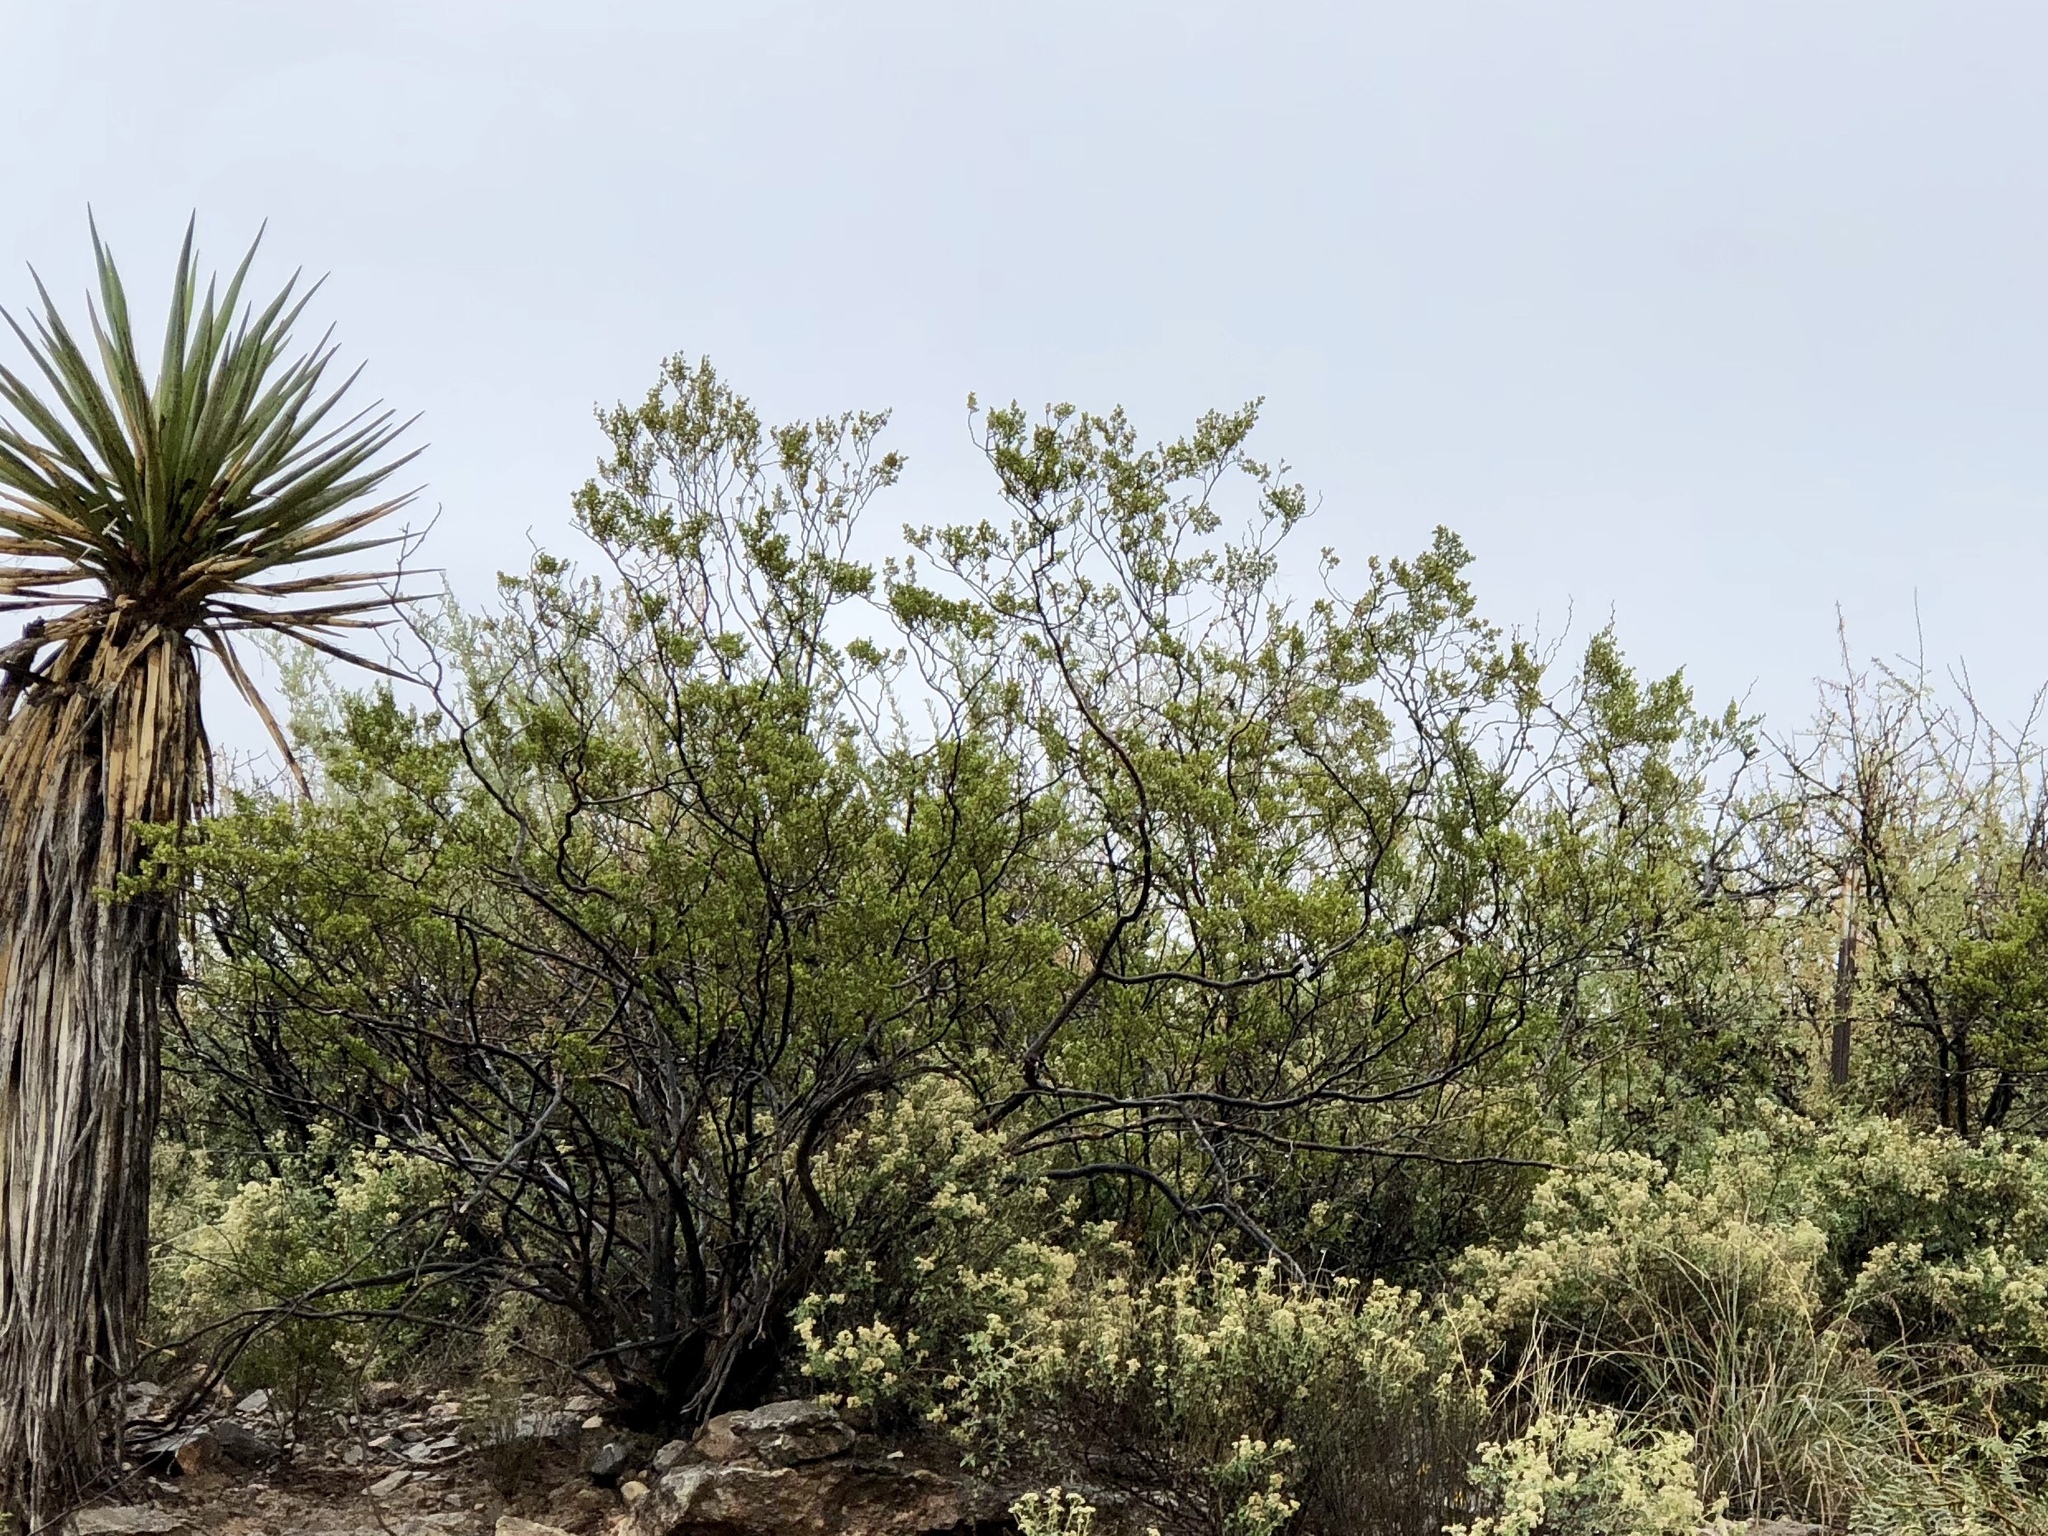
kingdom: Plantae
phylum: Tracheophyta
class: Magnoliopsida
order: Zygophyllales
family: Zygophyllaceae
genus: Larrea
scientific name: Larrea tridentata
